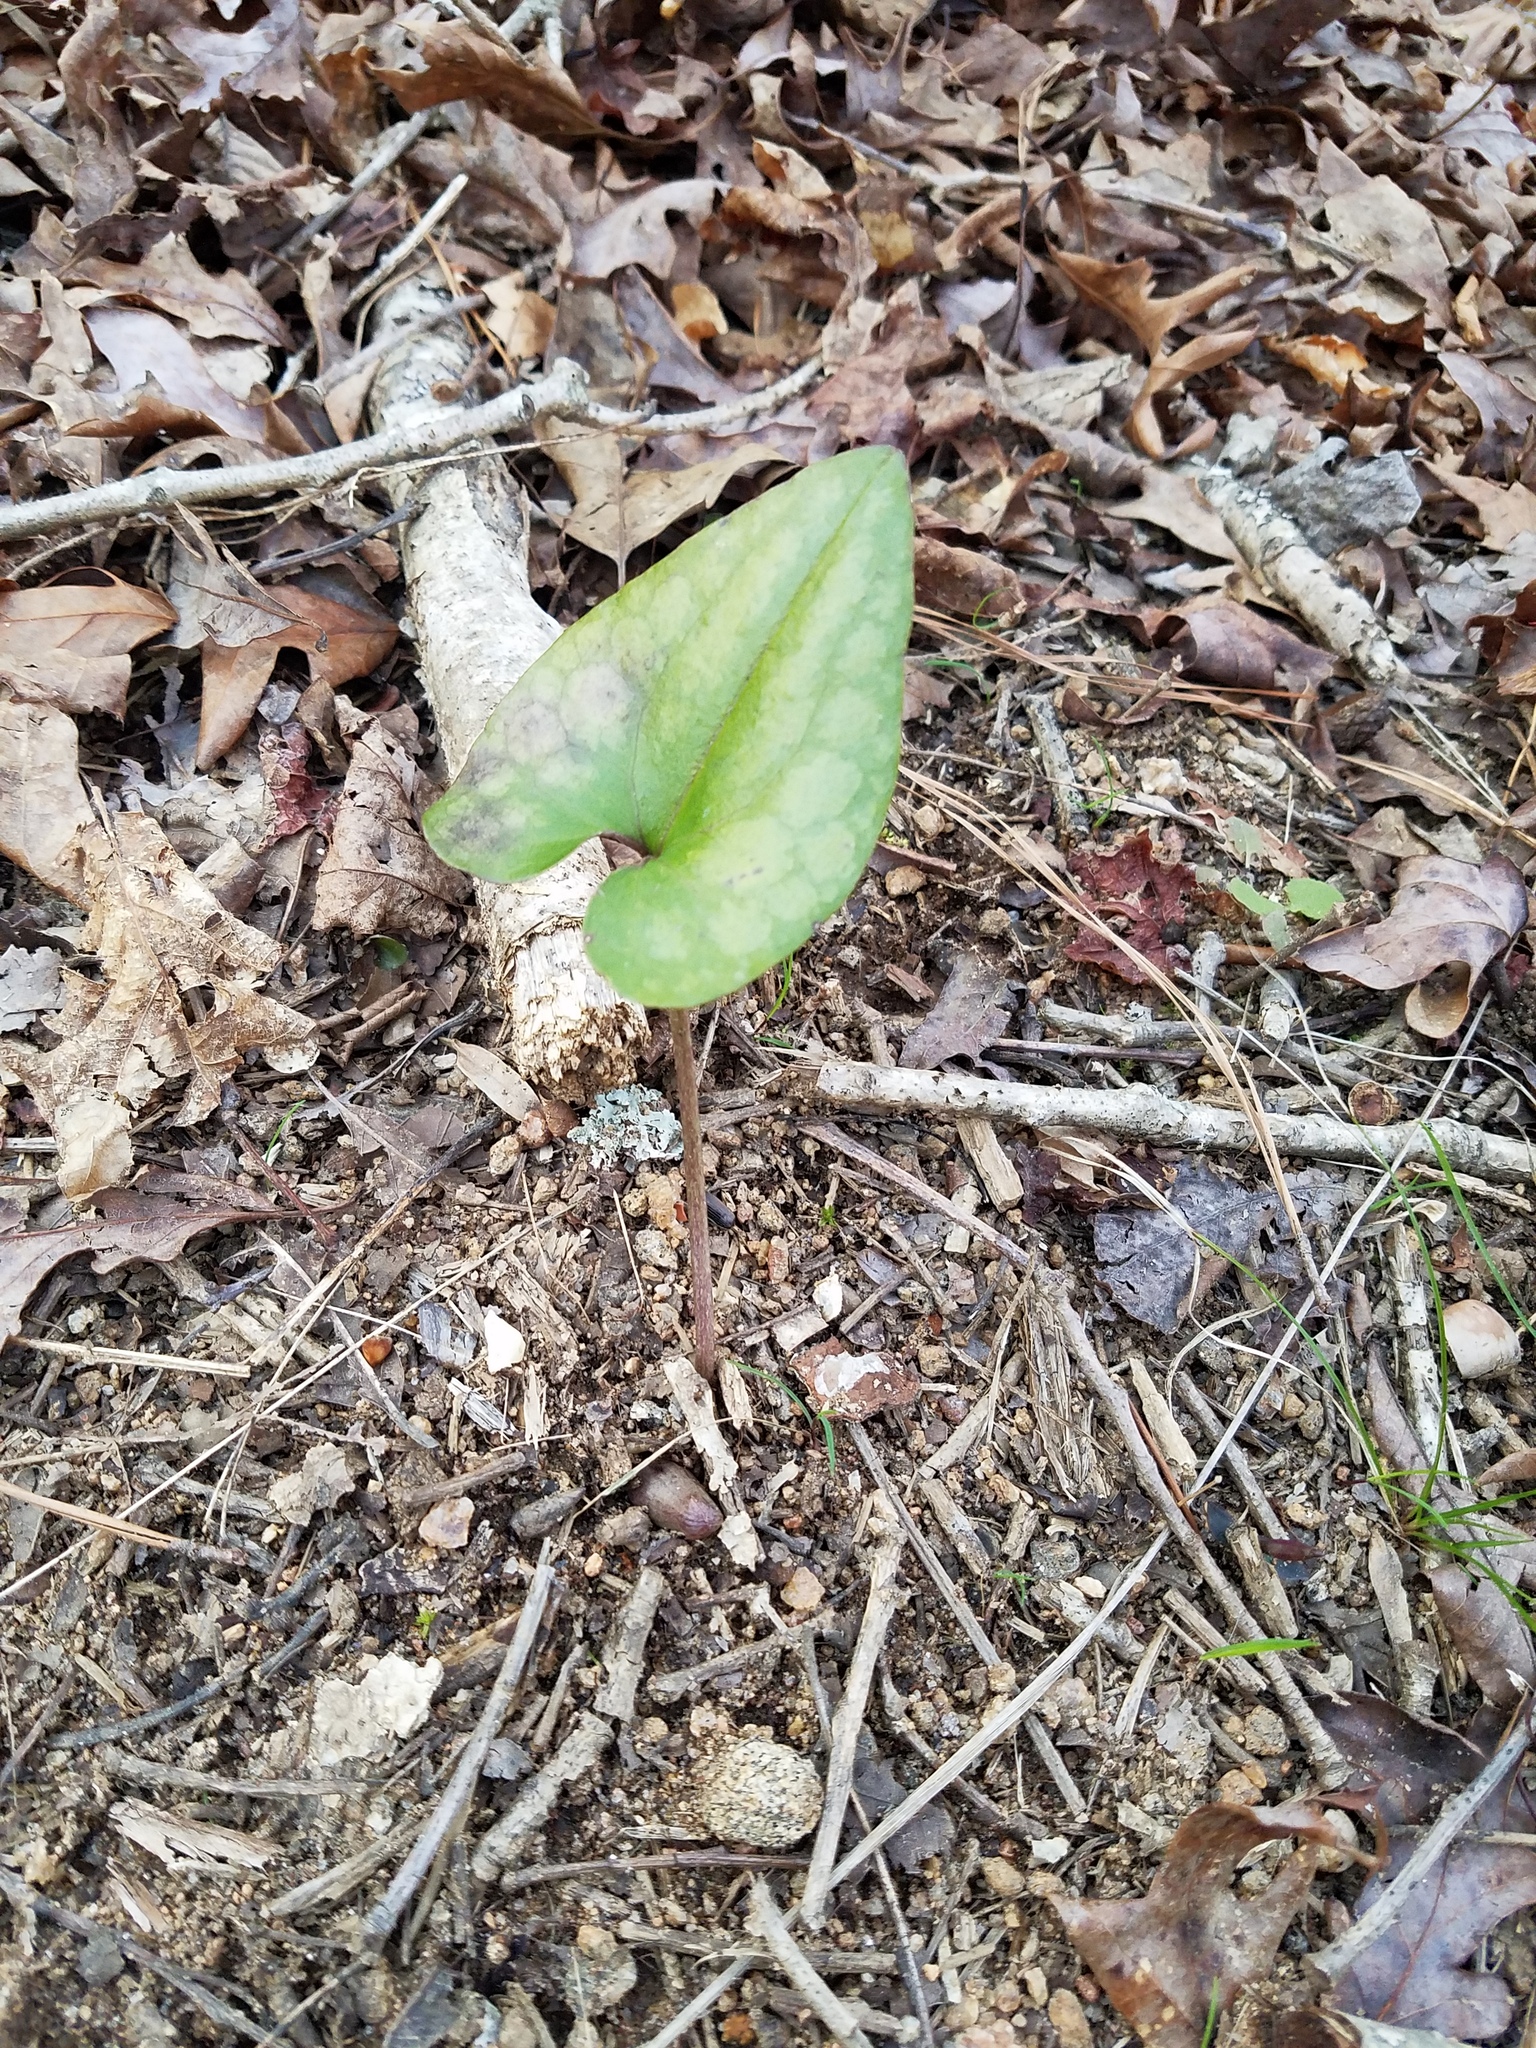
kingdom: Plantae
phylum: Tracheophyta
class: Magnoliopsida
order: Piperales
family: Aristolochiaceae
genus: Hexastylis
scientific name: Hexastylis arifolia
